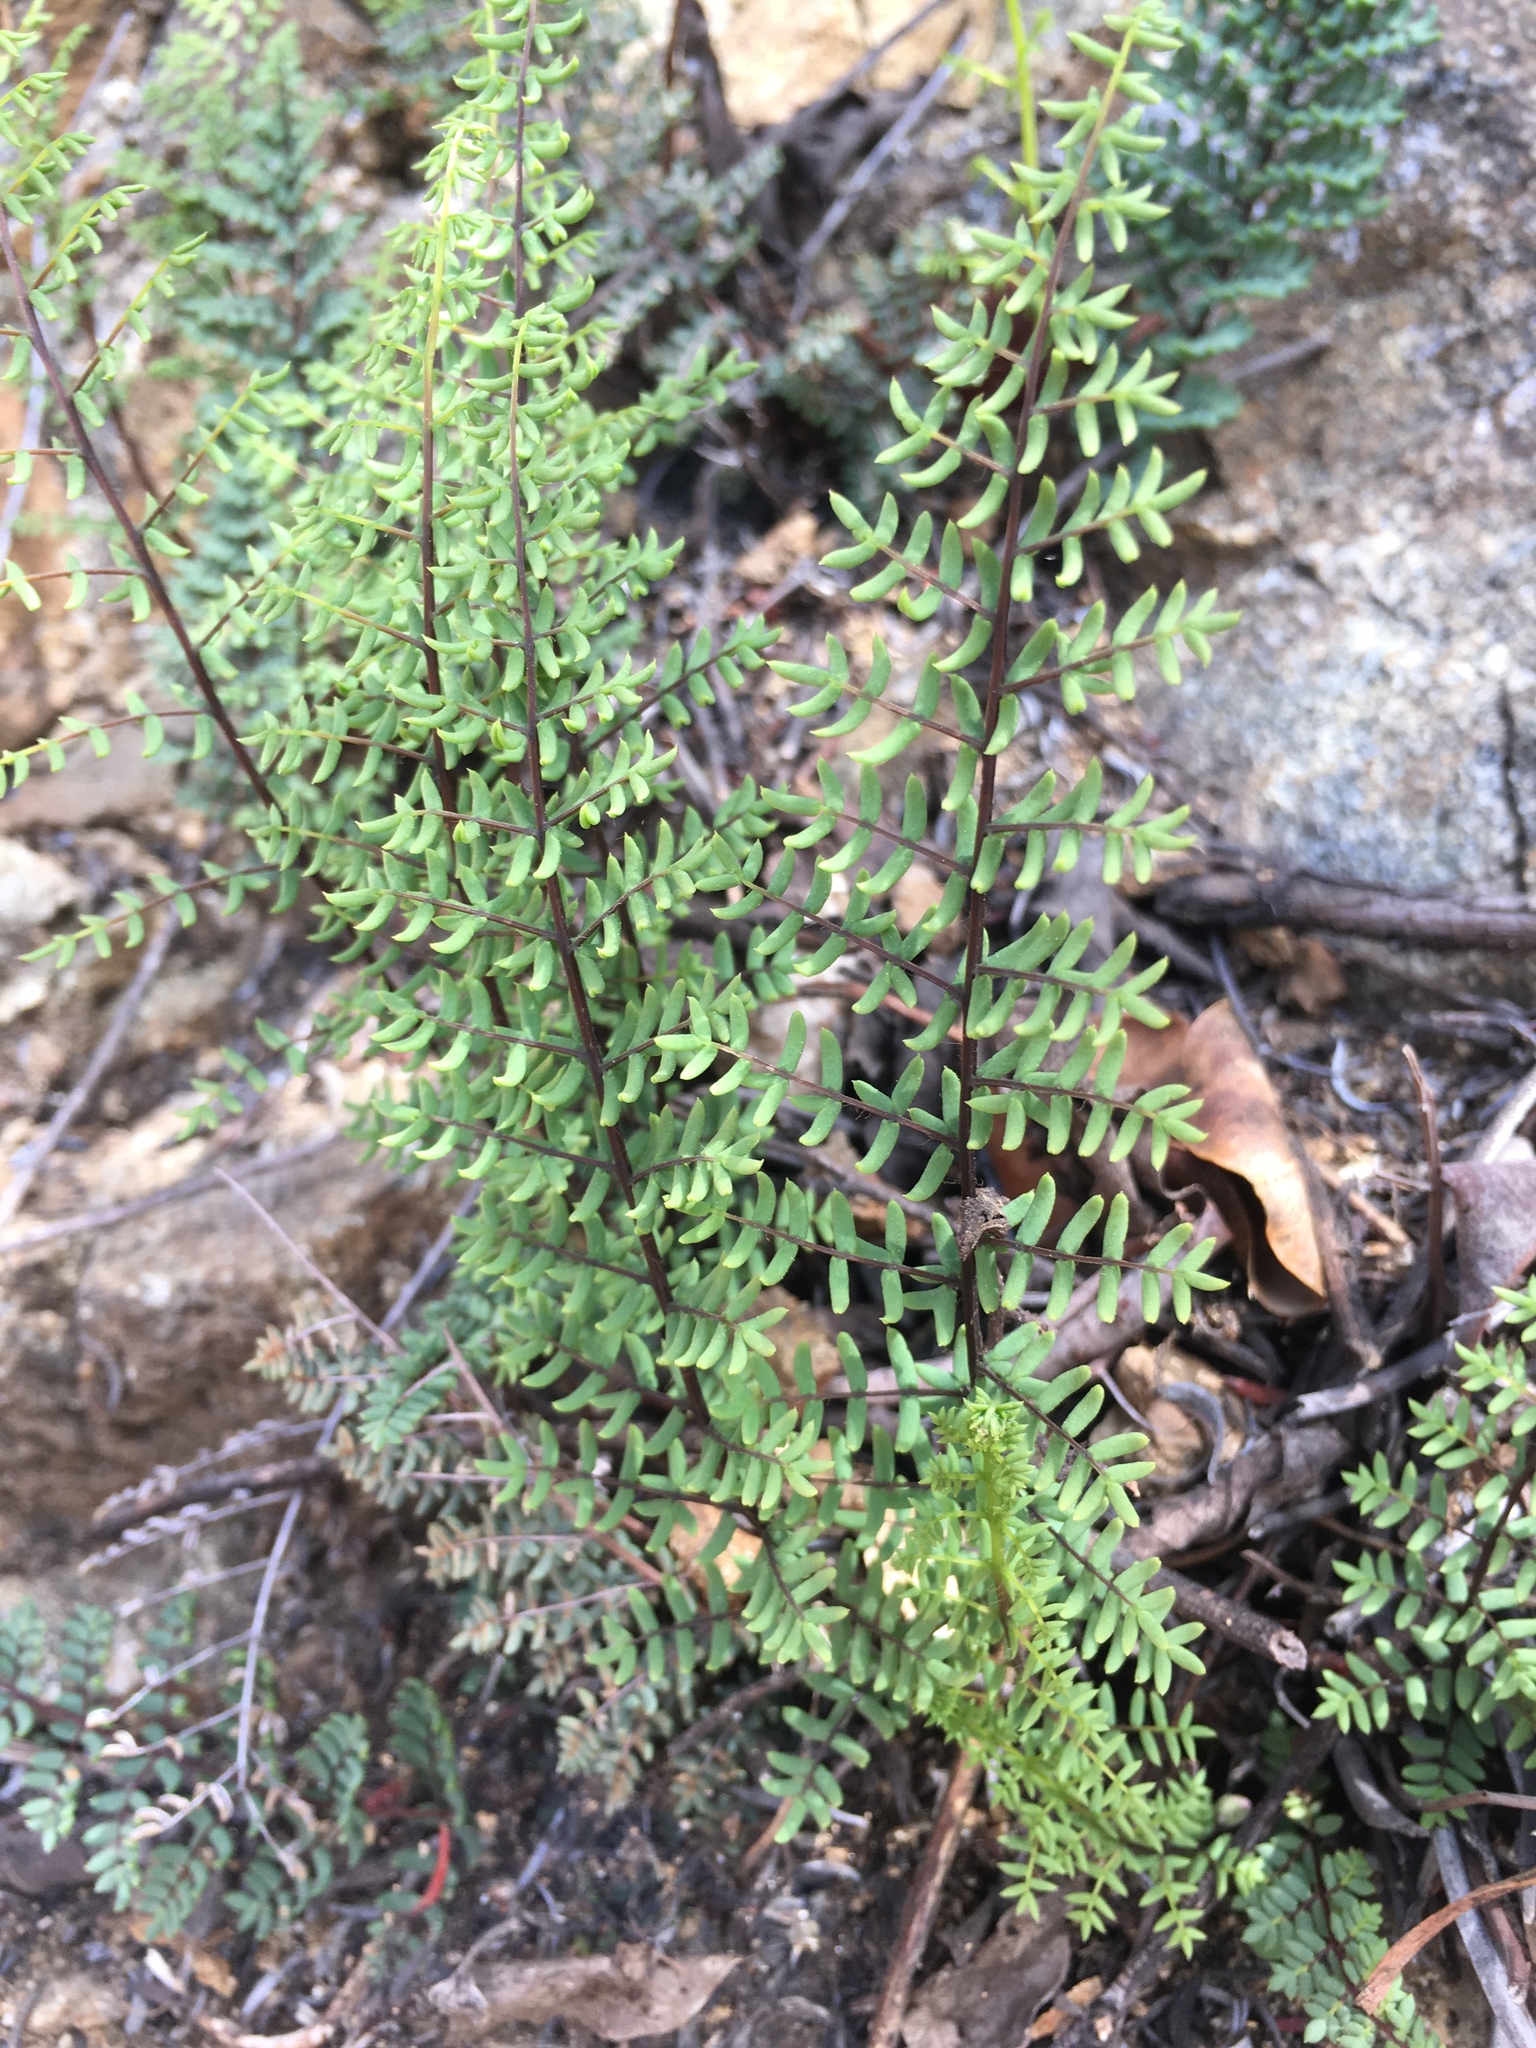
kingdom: Plantae
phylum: Tracheophyta
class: Polypodiopsida
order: Polypodiales
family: Pteridaceae
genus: Pellaea
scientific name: Pellaea mucronata
